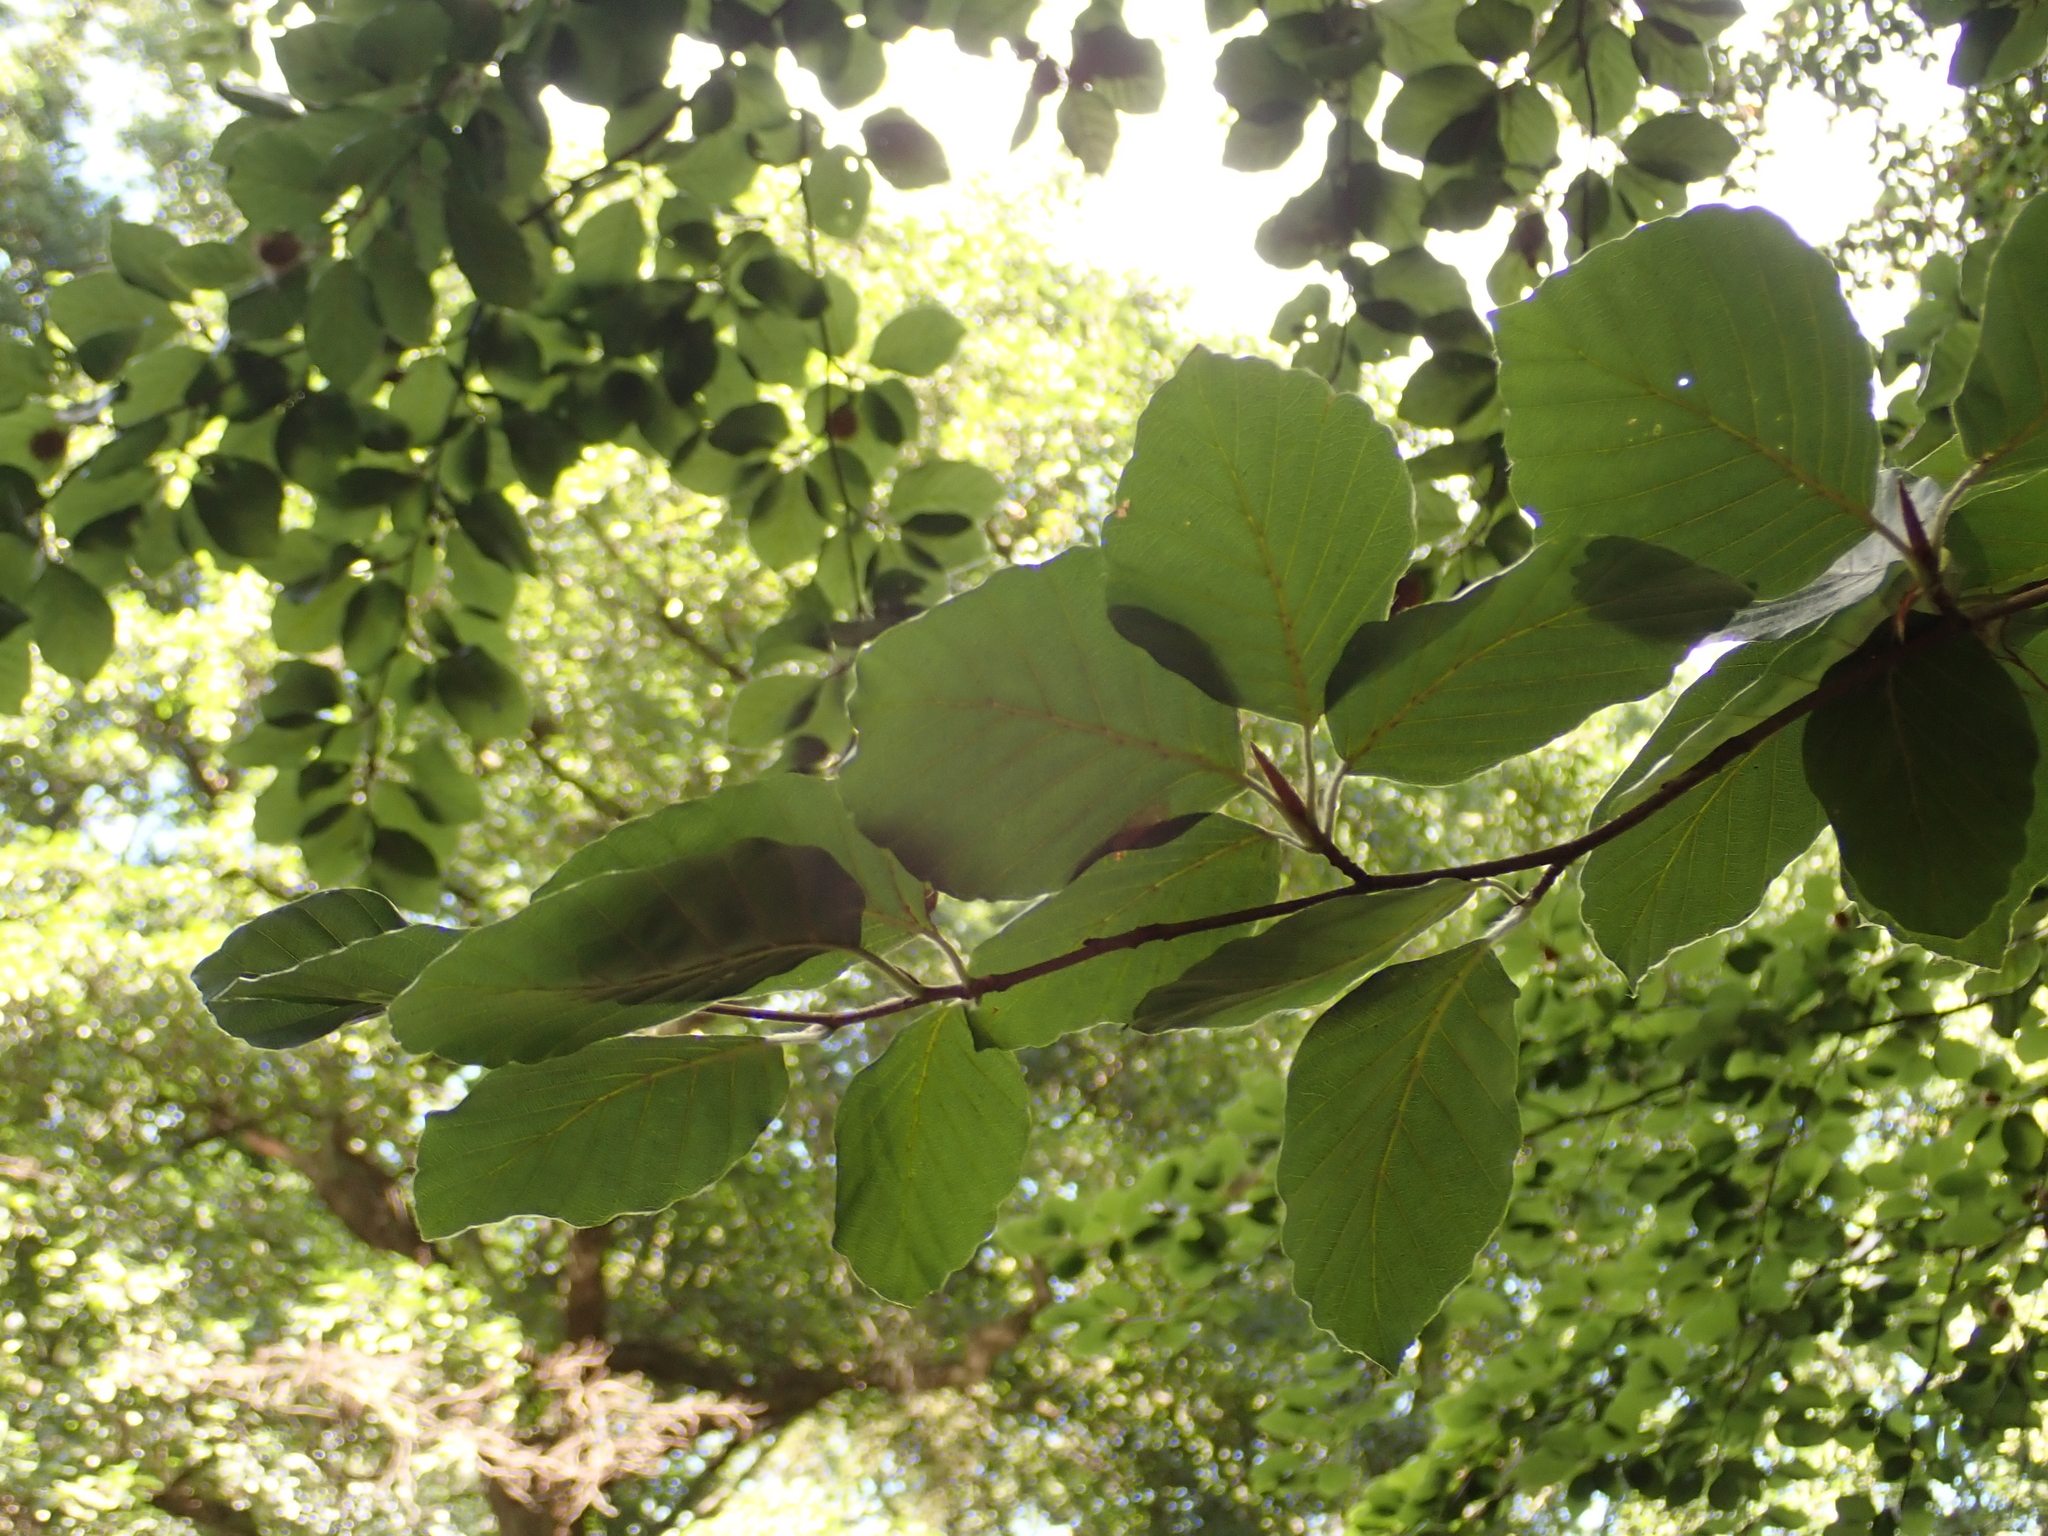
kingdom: Plantae
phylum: Tracheophyta
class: Magnoliopsida
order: Fagales
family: Fagaceae
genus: Fagus
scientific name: Fagus sylvatica
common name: Beech
